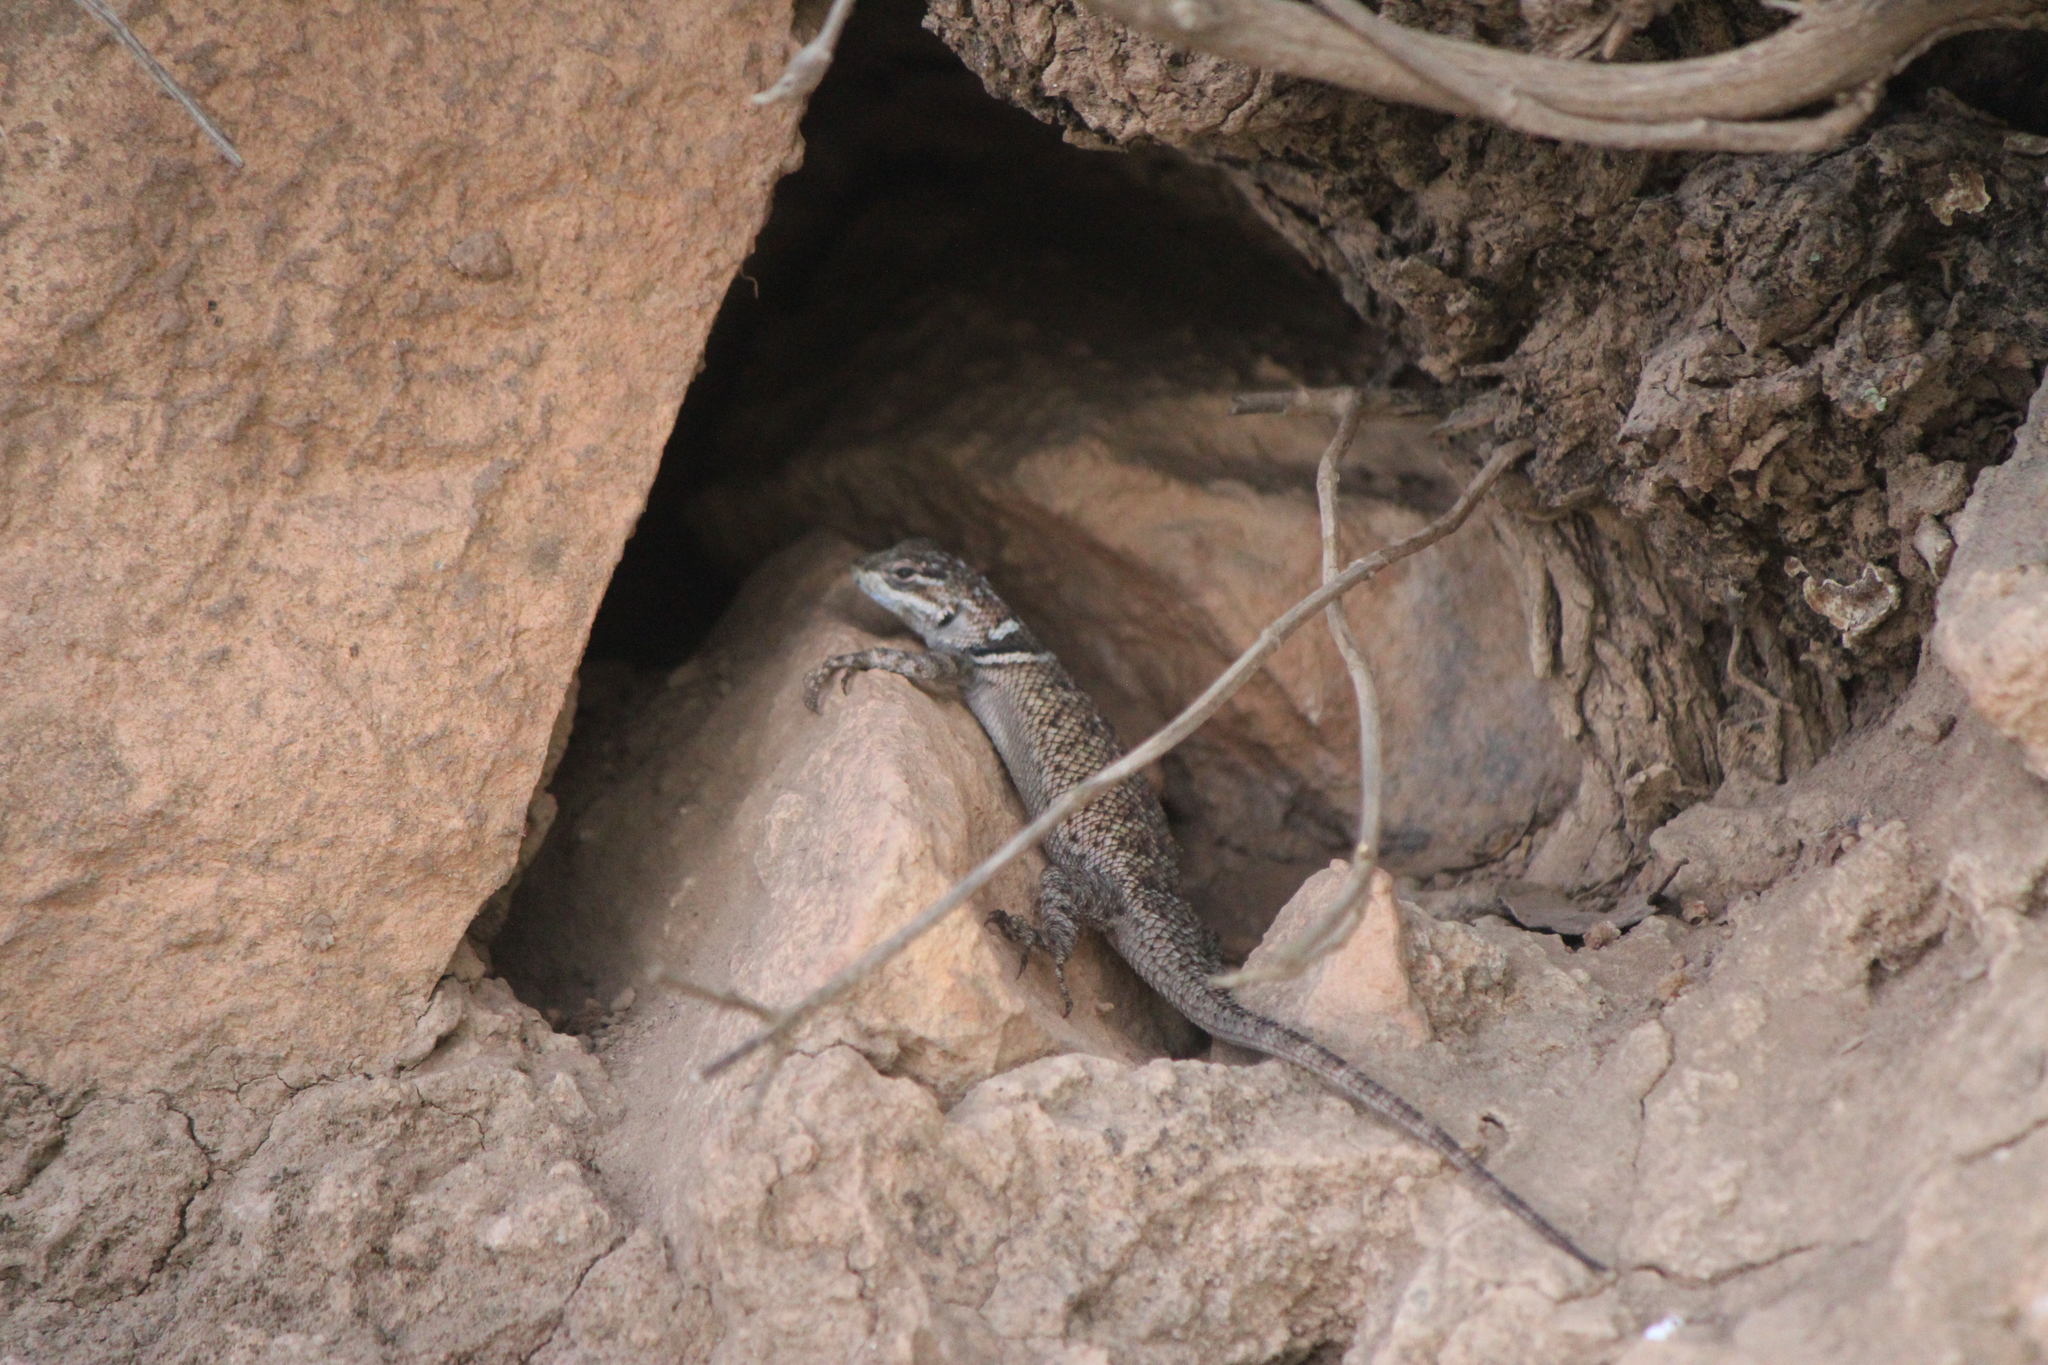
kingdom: Animalia
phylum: Chordata
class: Squamata
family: Phrynosomatidae
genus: Sceloporus
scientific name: Sceloporus minor
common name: Minor lizard
